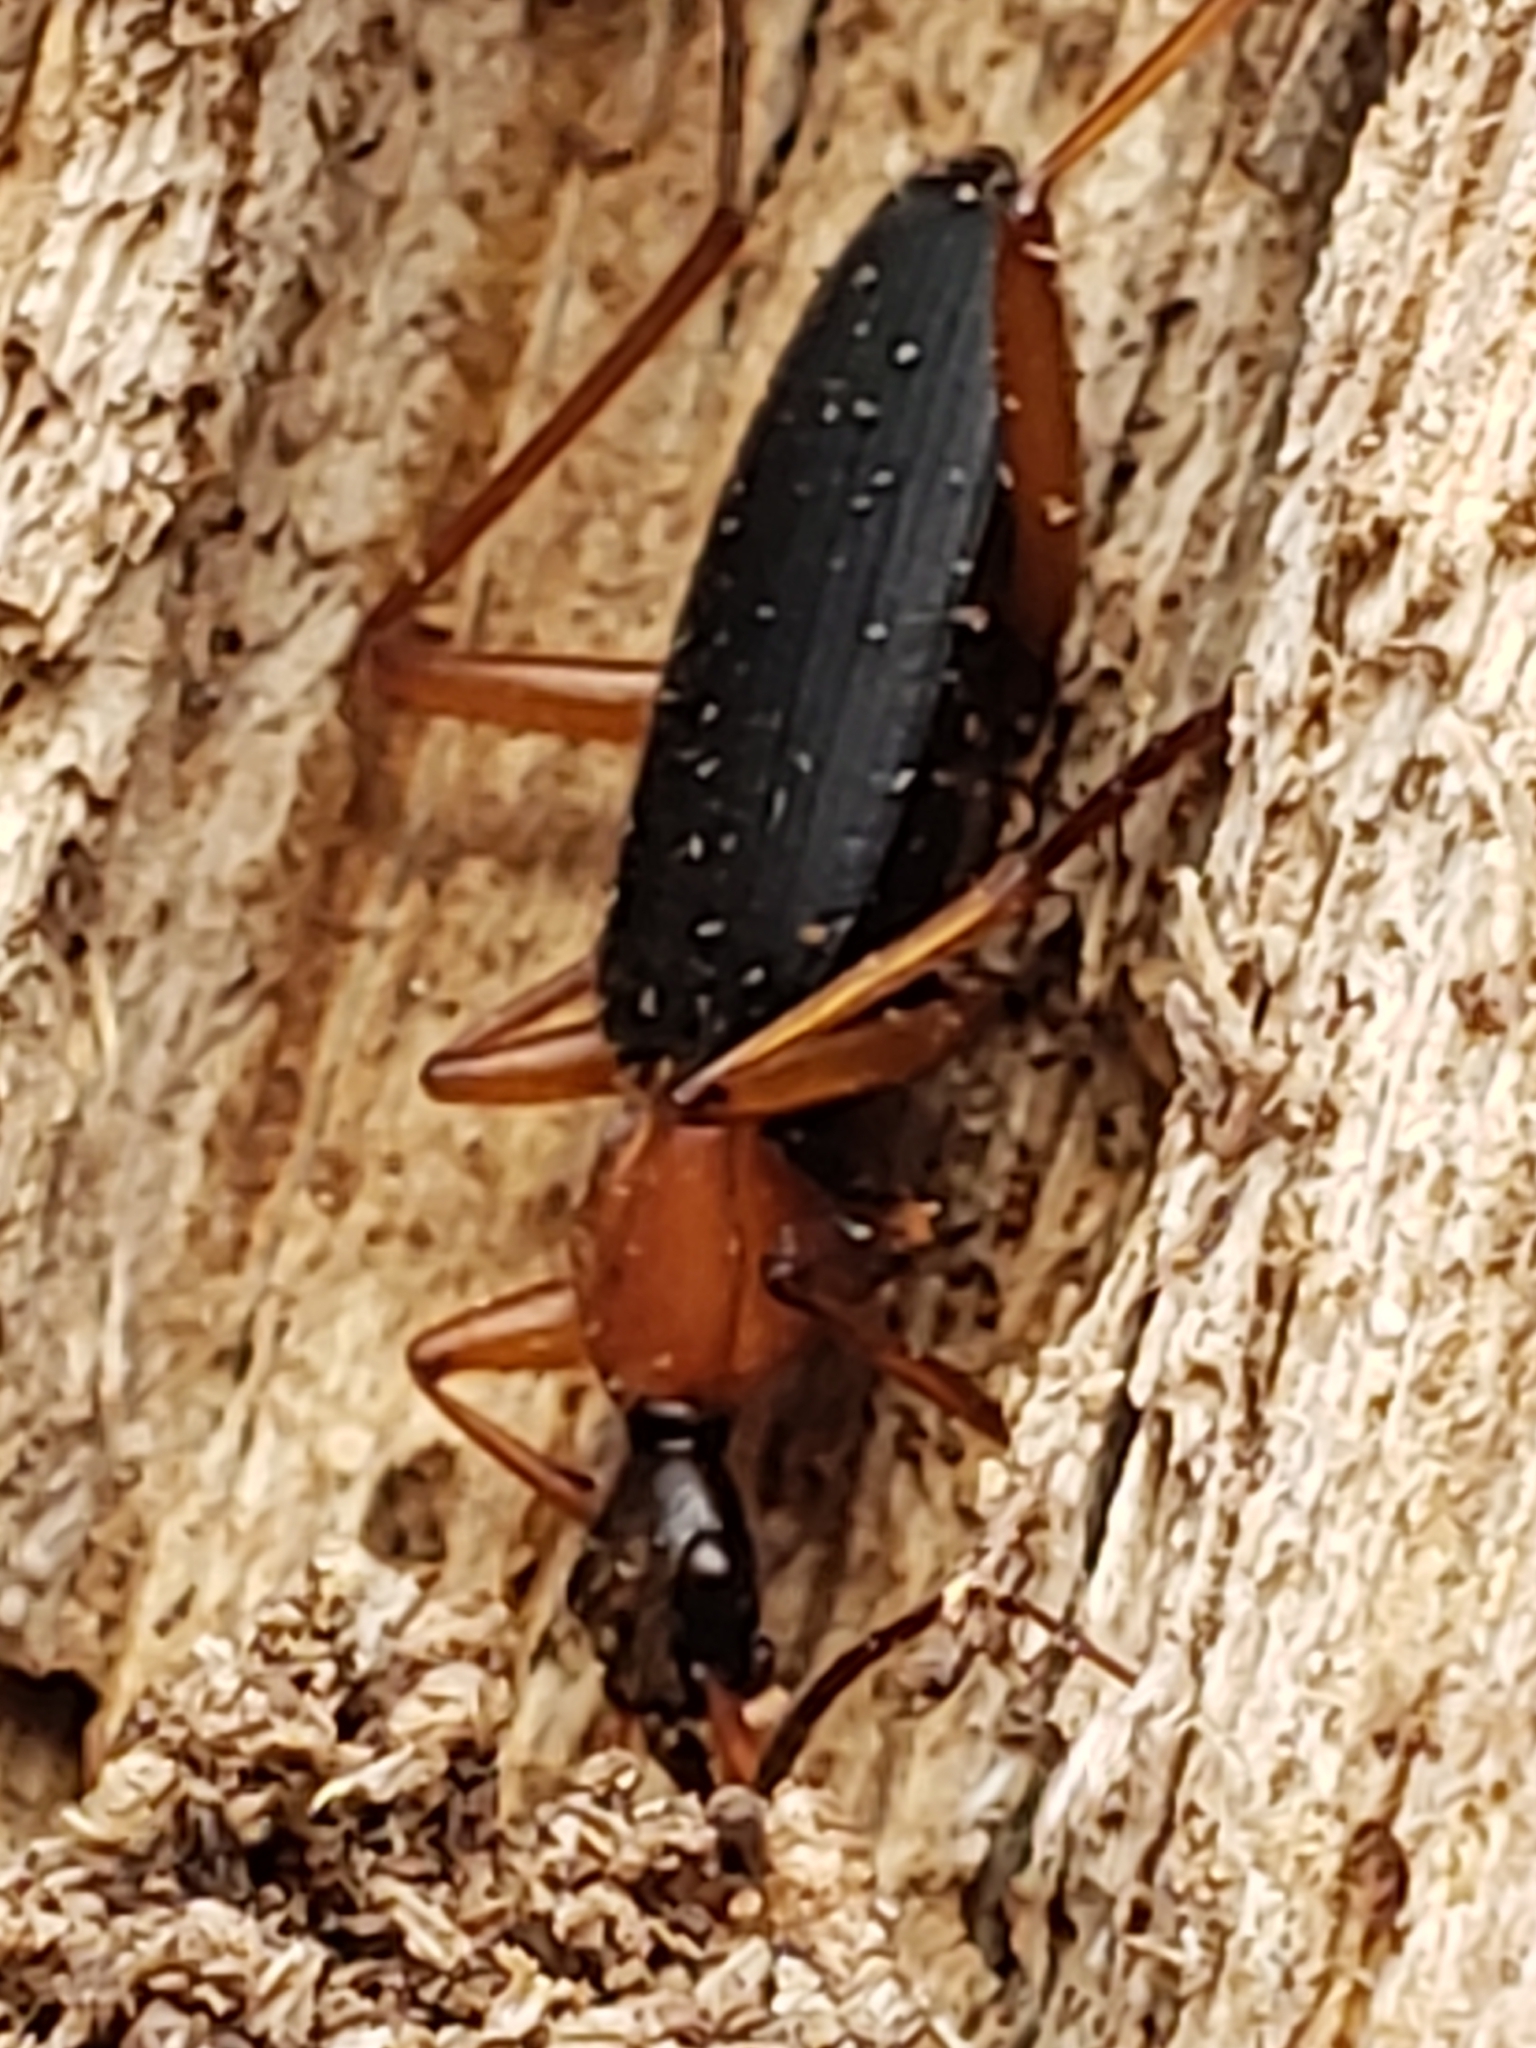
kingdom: Animalia
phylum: Arthropoda
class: Insecta
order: Coleoptera
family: Carabidae
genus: Galerita
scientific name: Galerita bicolor
